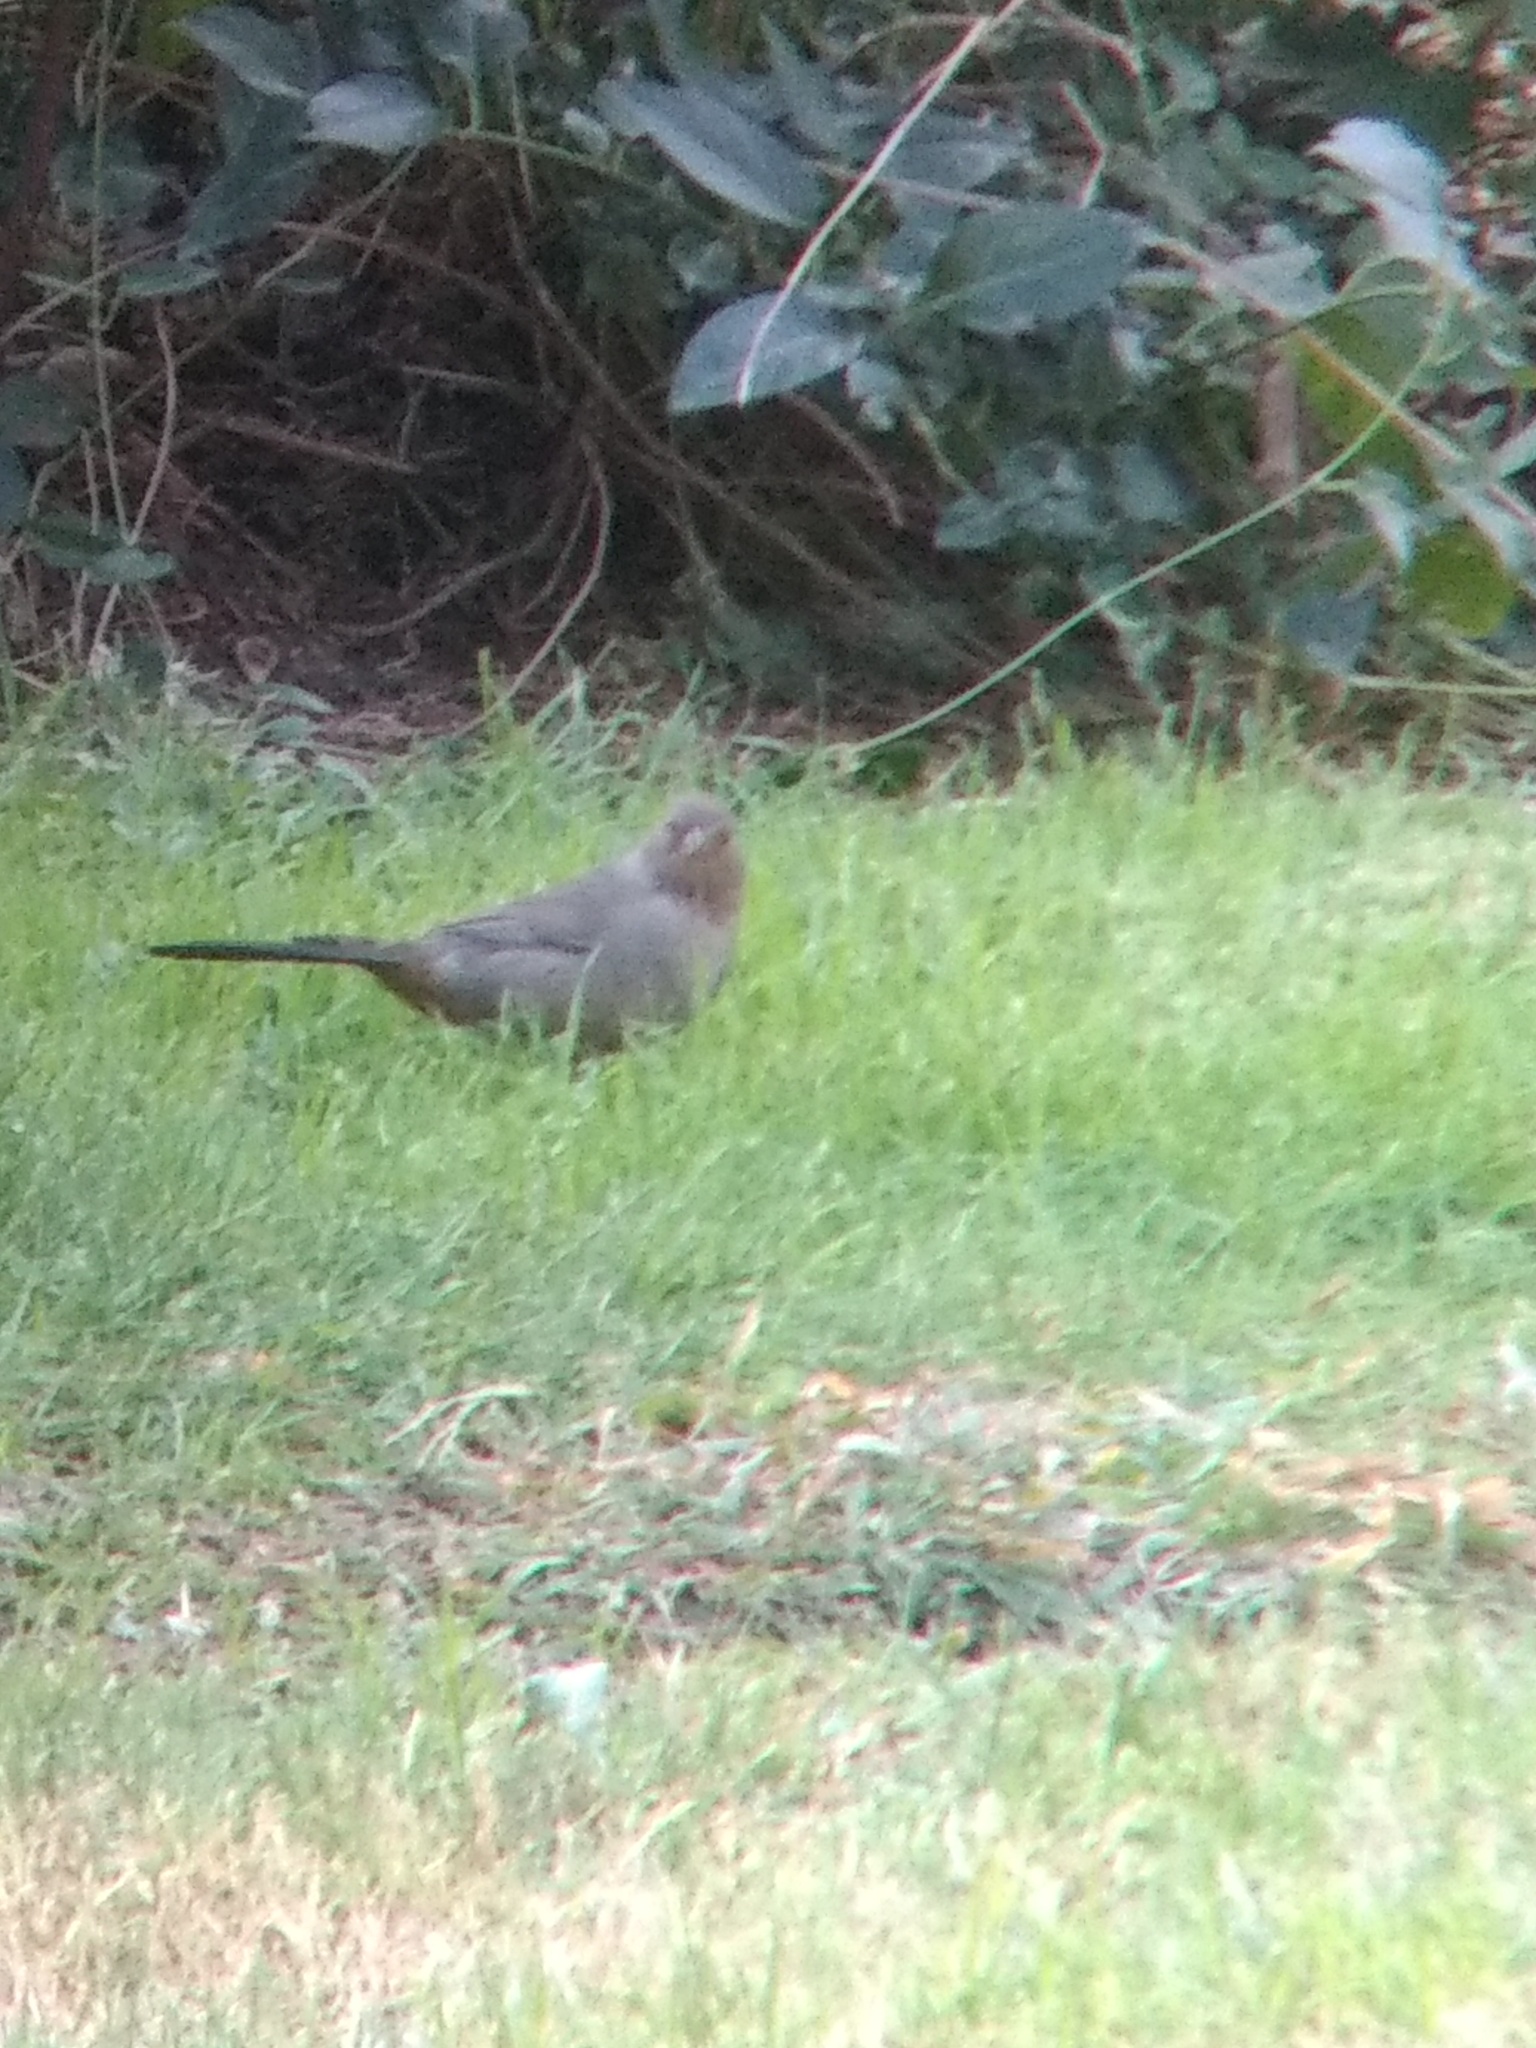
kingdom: Animalia
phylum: Chordata
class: Aves
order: Passeriformes
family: Passerellidae
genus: Melozone
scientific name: Melozone crissalis
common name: California towhee
